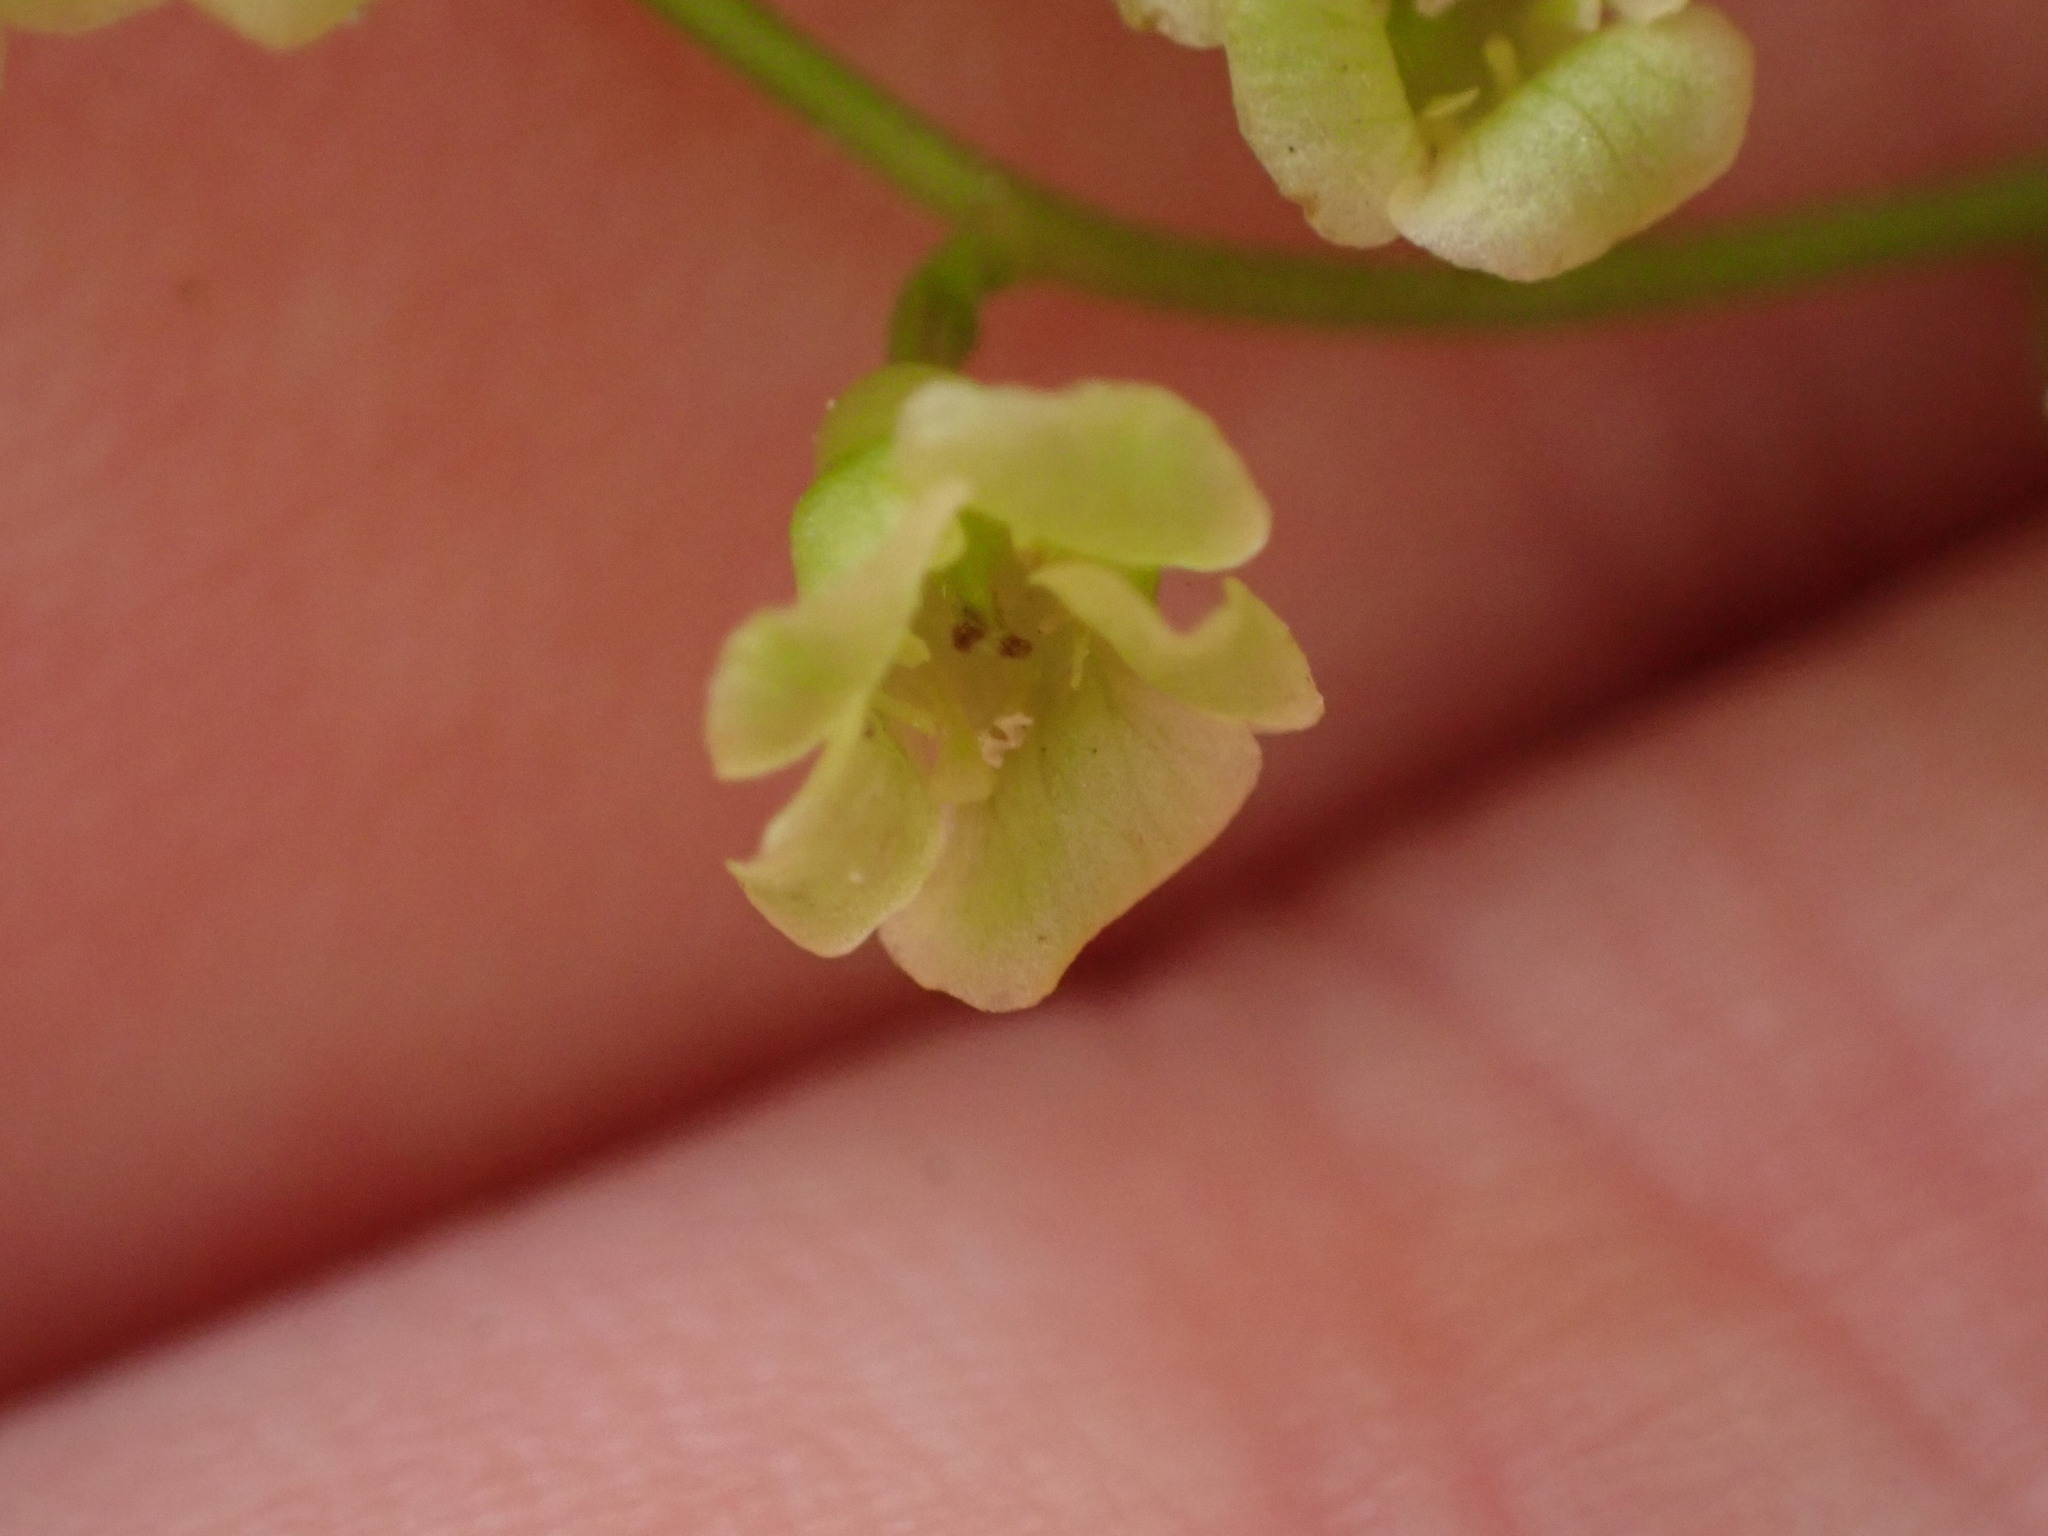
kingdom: Plantae
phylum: Tracheophyta
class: Magnoliopsida
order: Saxifragales
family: Grossulariaceae
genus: Ribes
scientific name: Ribes rubrum
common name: Red currant
